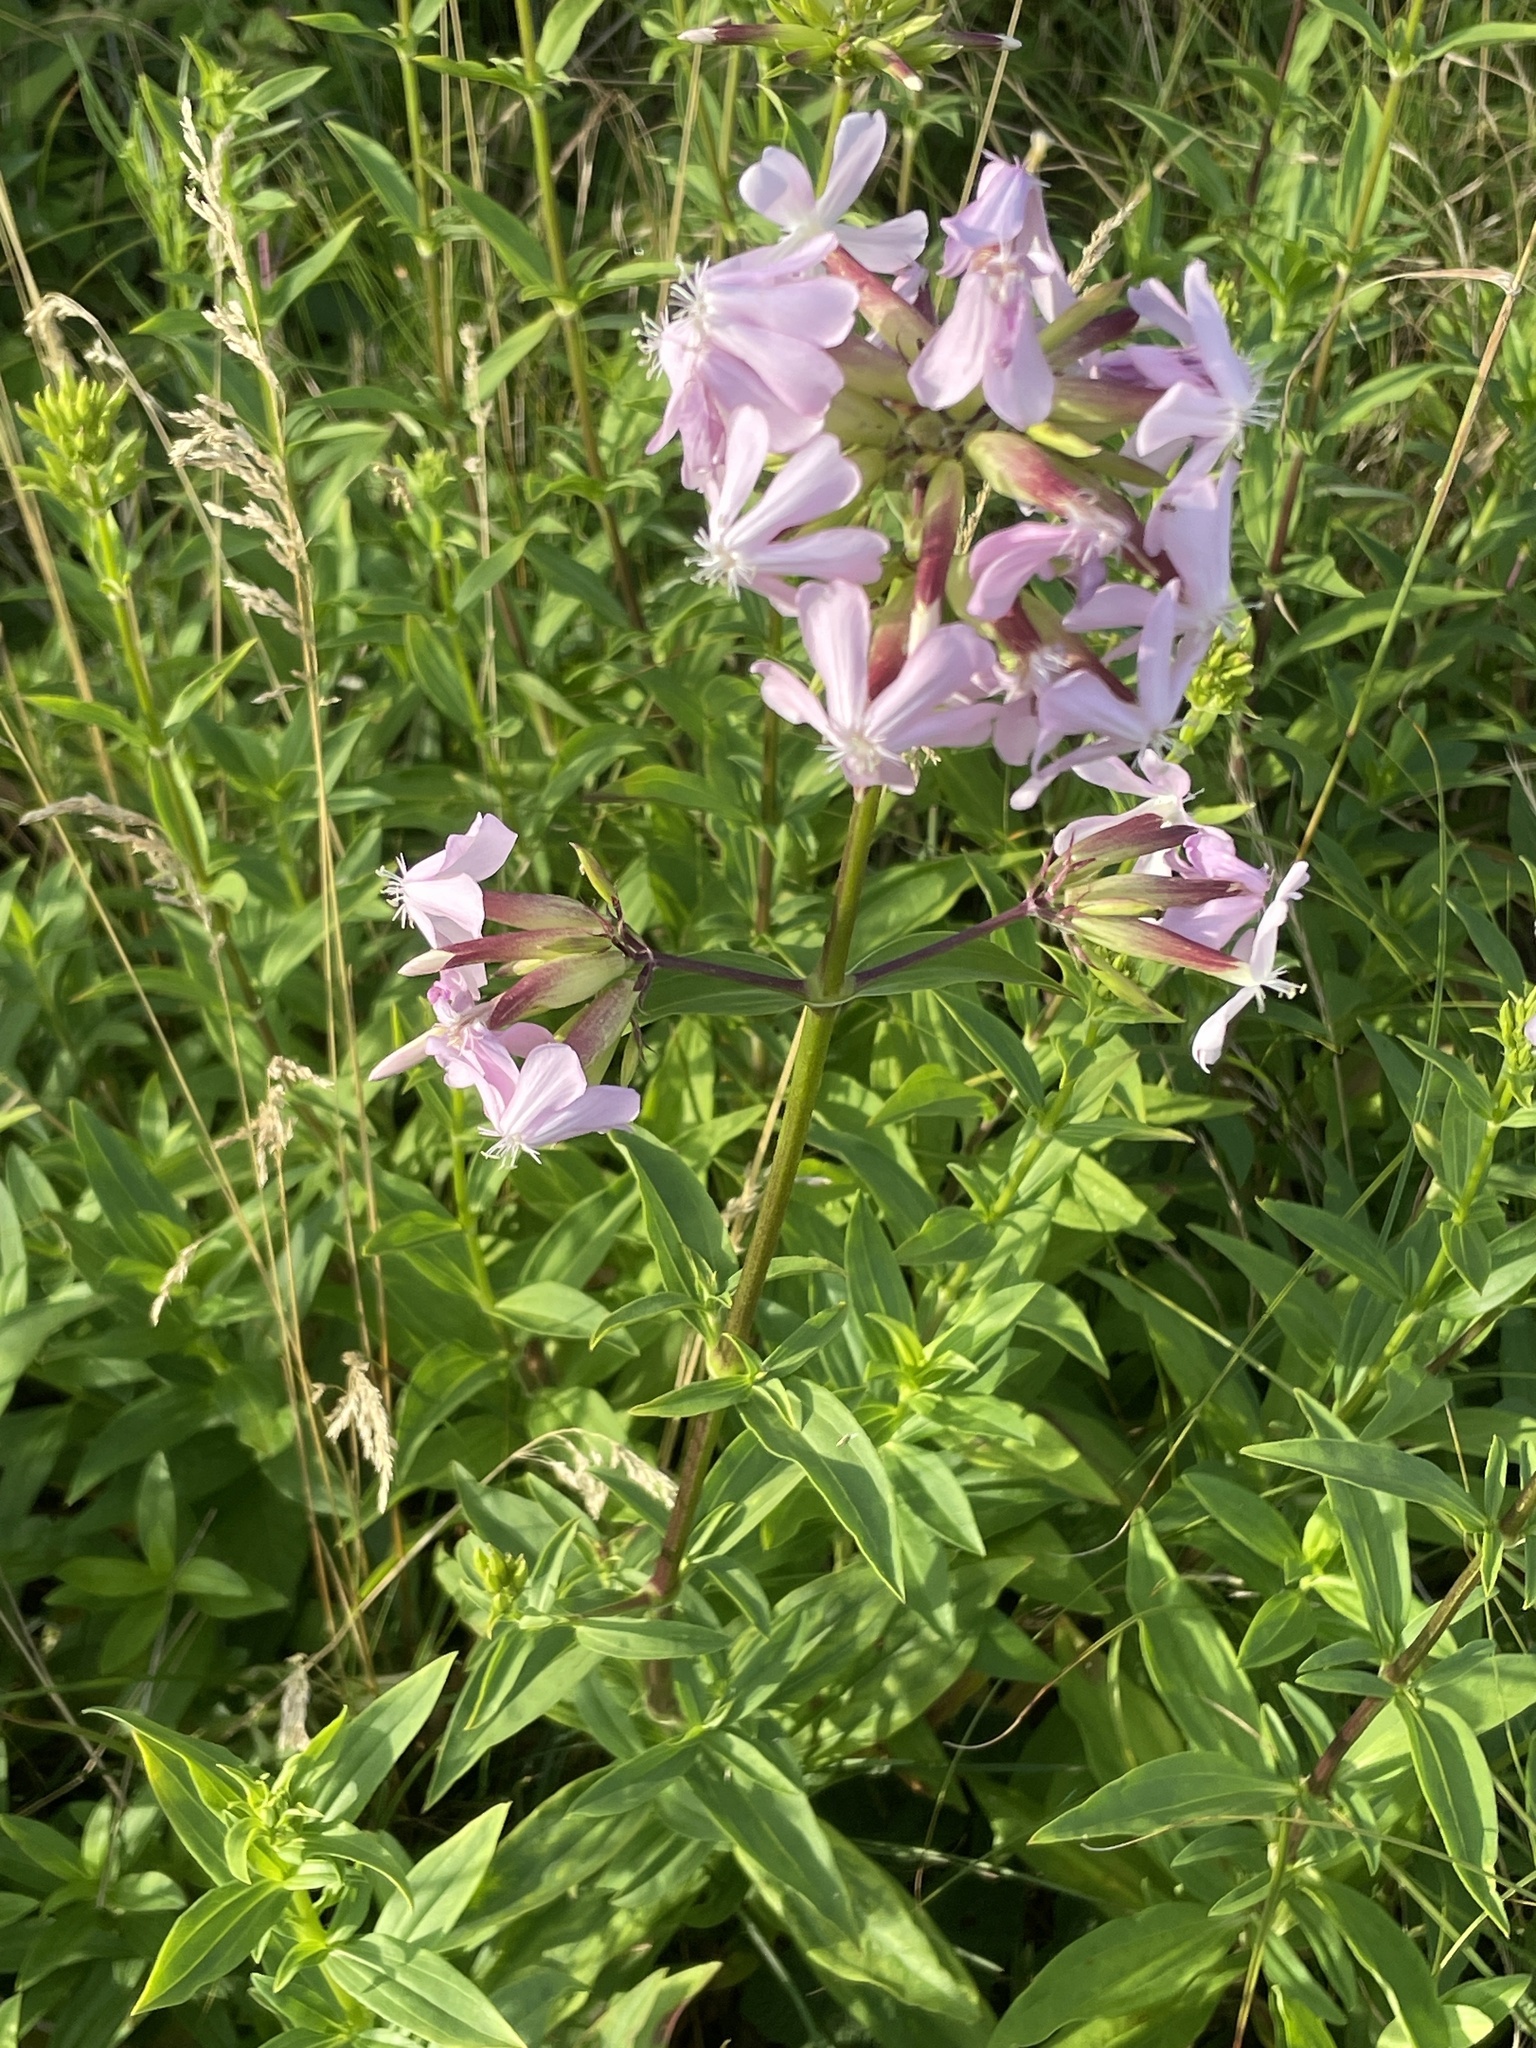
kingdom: Plantae
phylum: Tracheophyta
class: Magnoliopsida
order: Caryophyllales
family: Caryophyllaceae
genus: Saponaria
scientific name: Saponaria officinalis
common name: Soapwort
